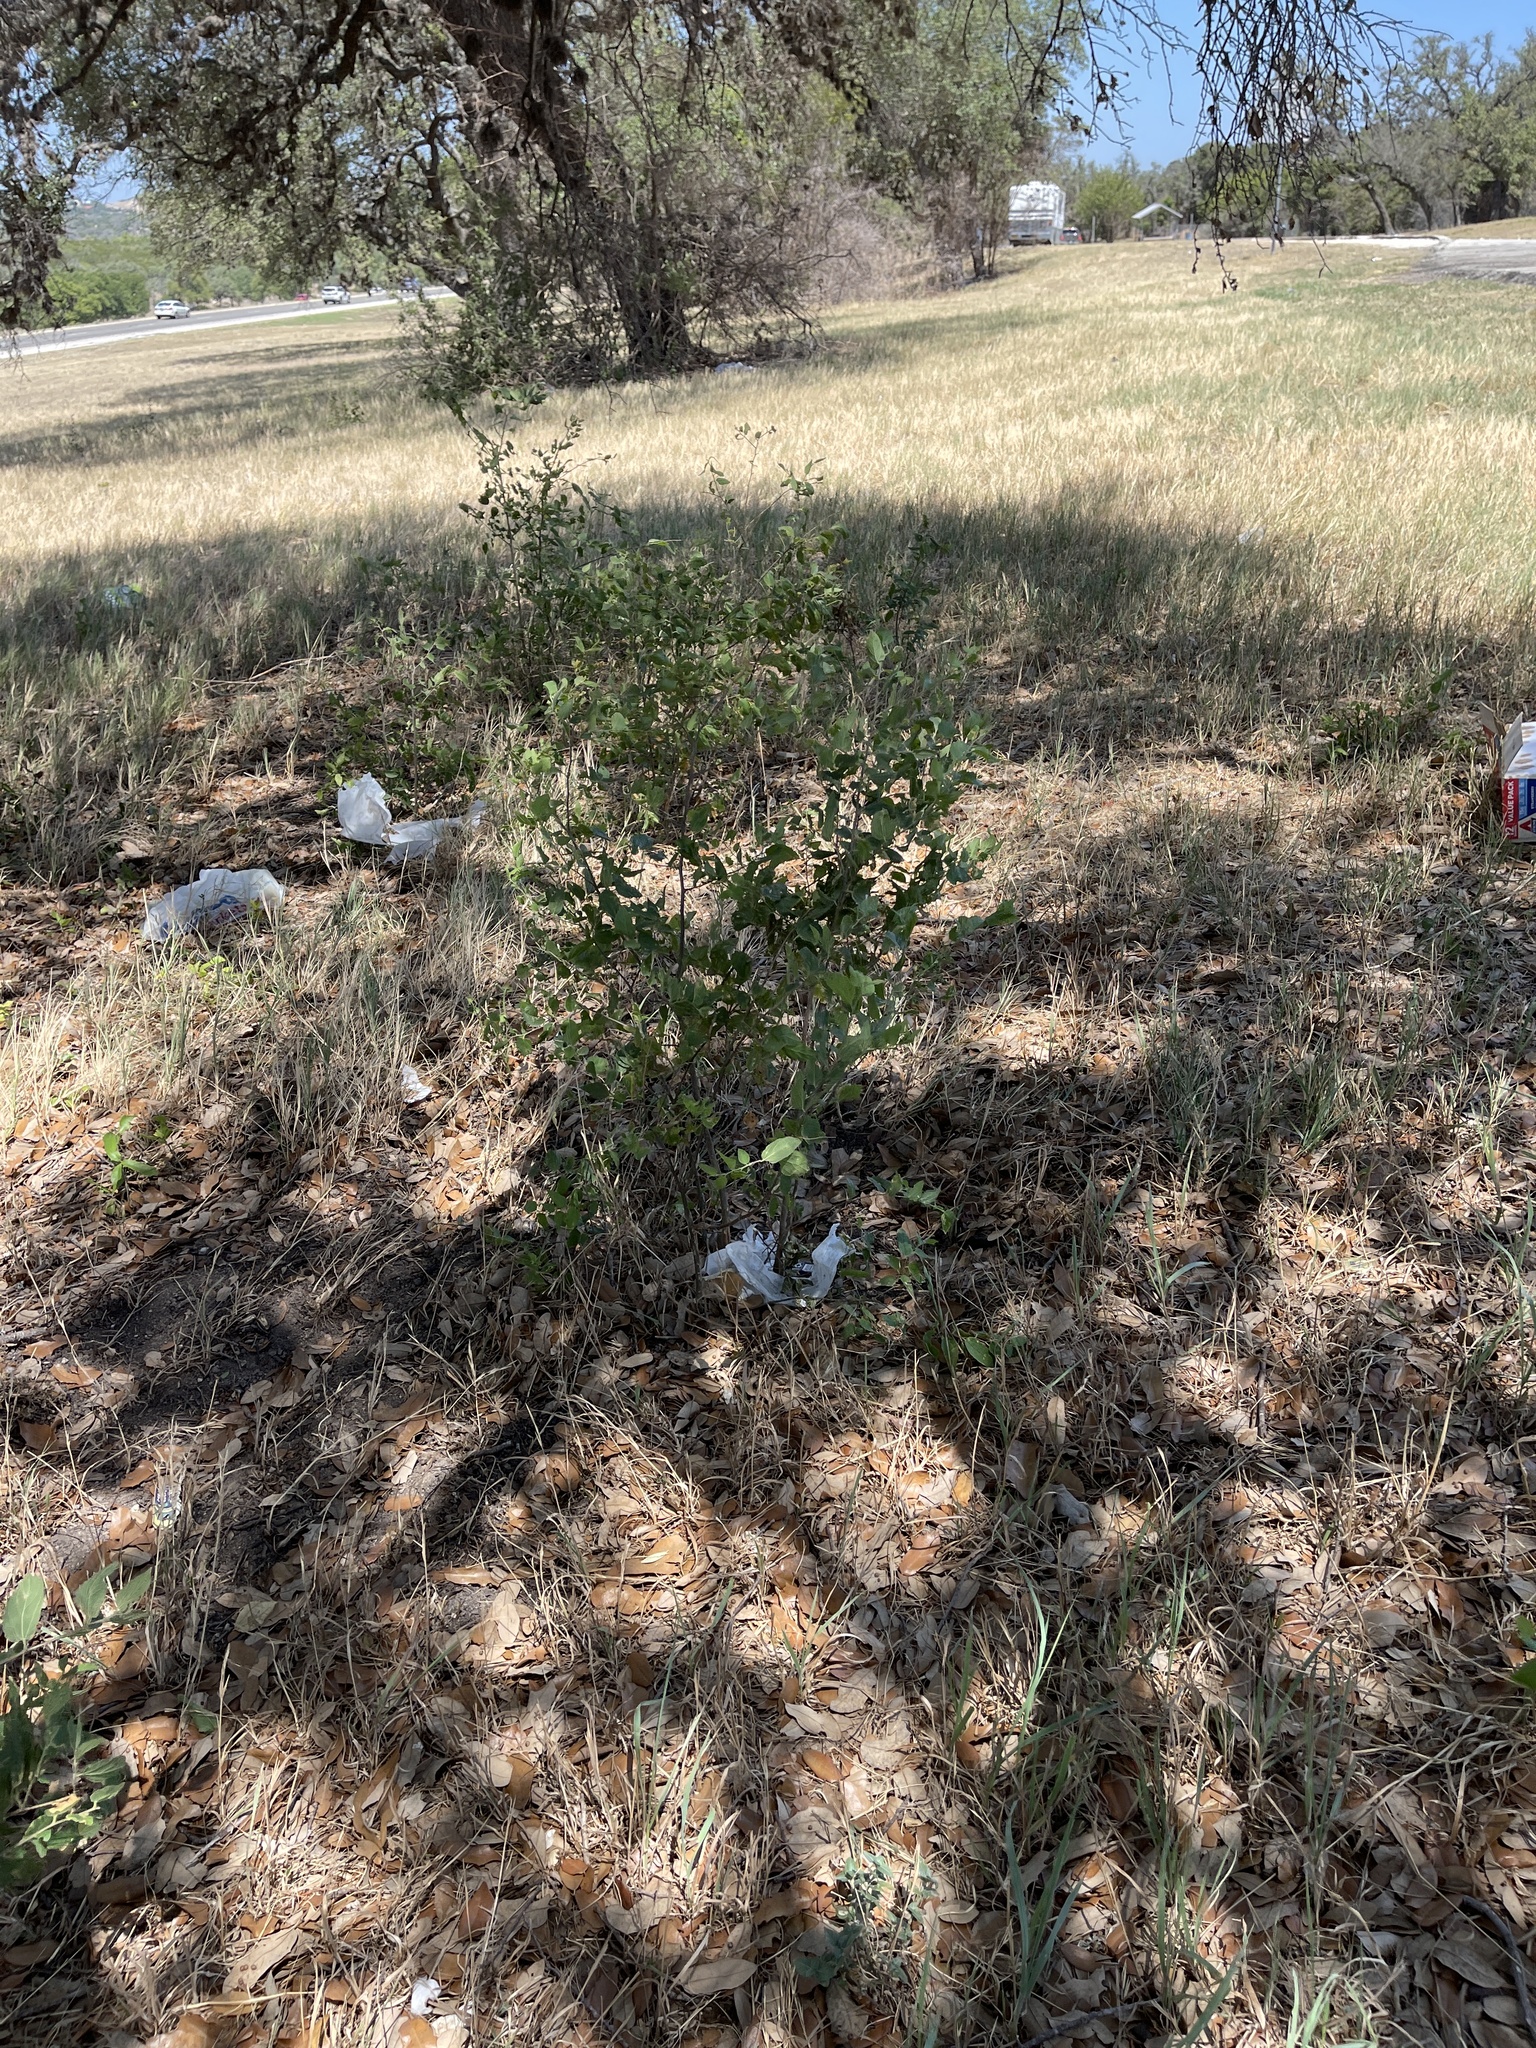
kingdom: Plantae
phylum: Tracheophyta
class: Magnoliopsida
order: Rosales
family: Cannabaceae
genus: Celtis
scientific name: Celtis reticulata
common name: Netleaf hackberry
